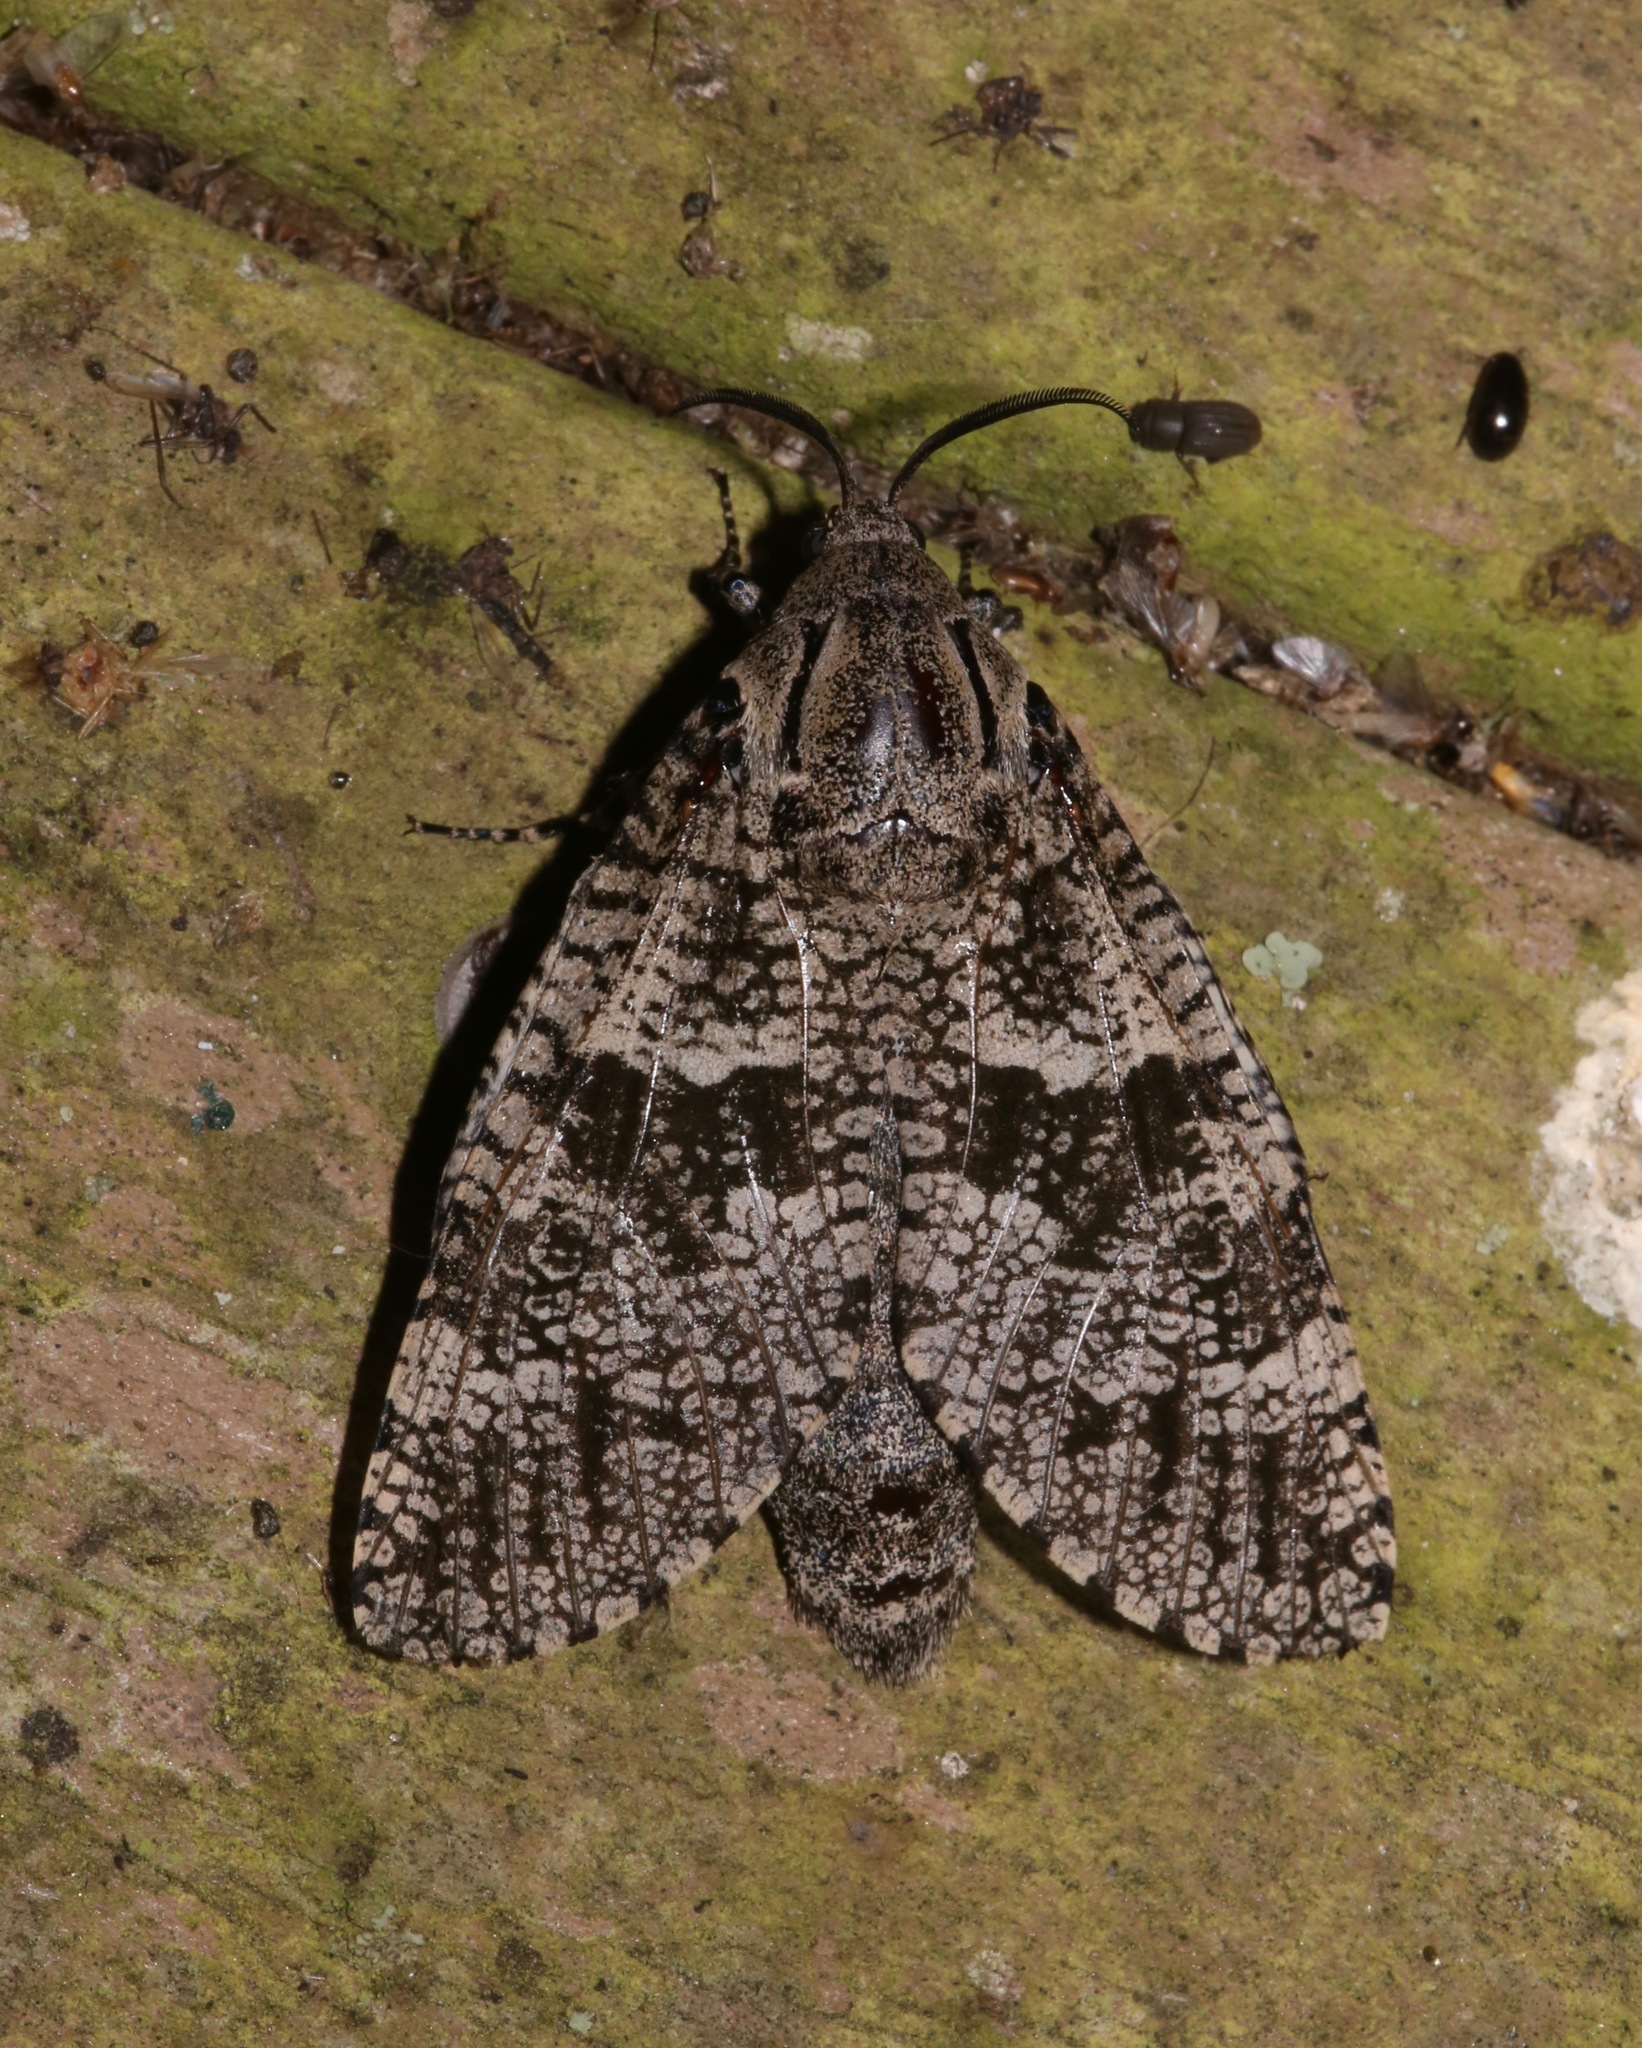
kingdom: Animalia
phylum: Arthropoda
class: Insecta
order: Lepidoptera
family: Cossidae
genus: Prionoxystus
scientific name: Prionoxystus robiniae
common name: Carpenterworm
